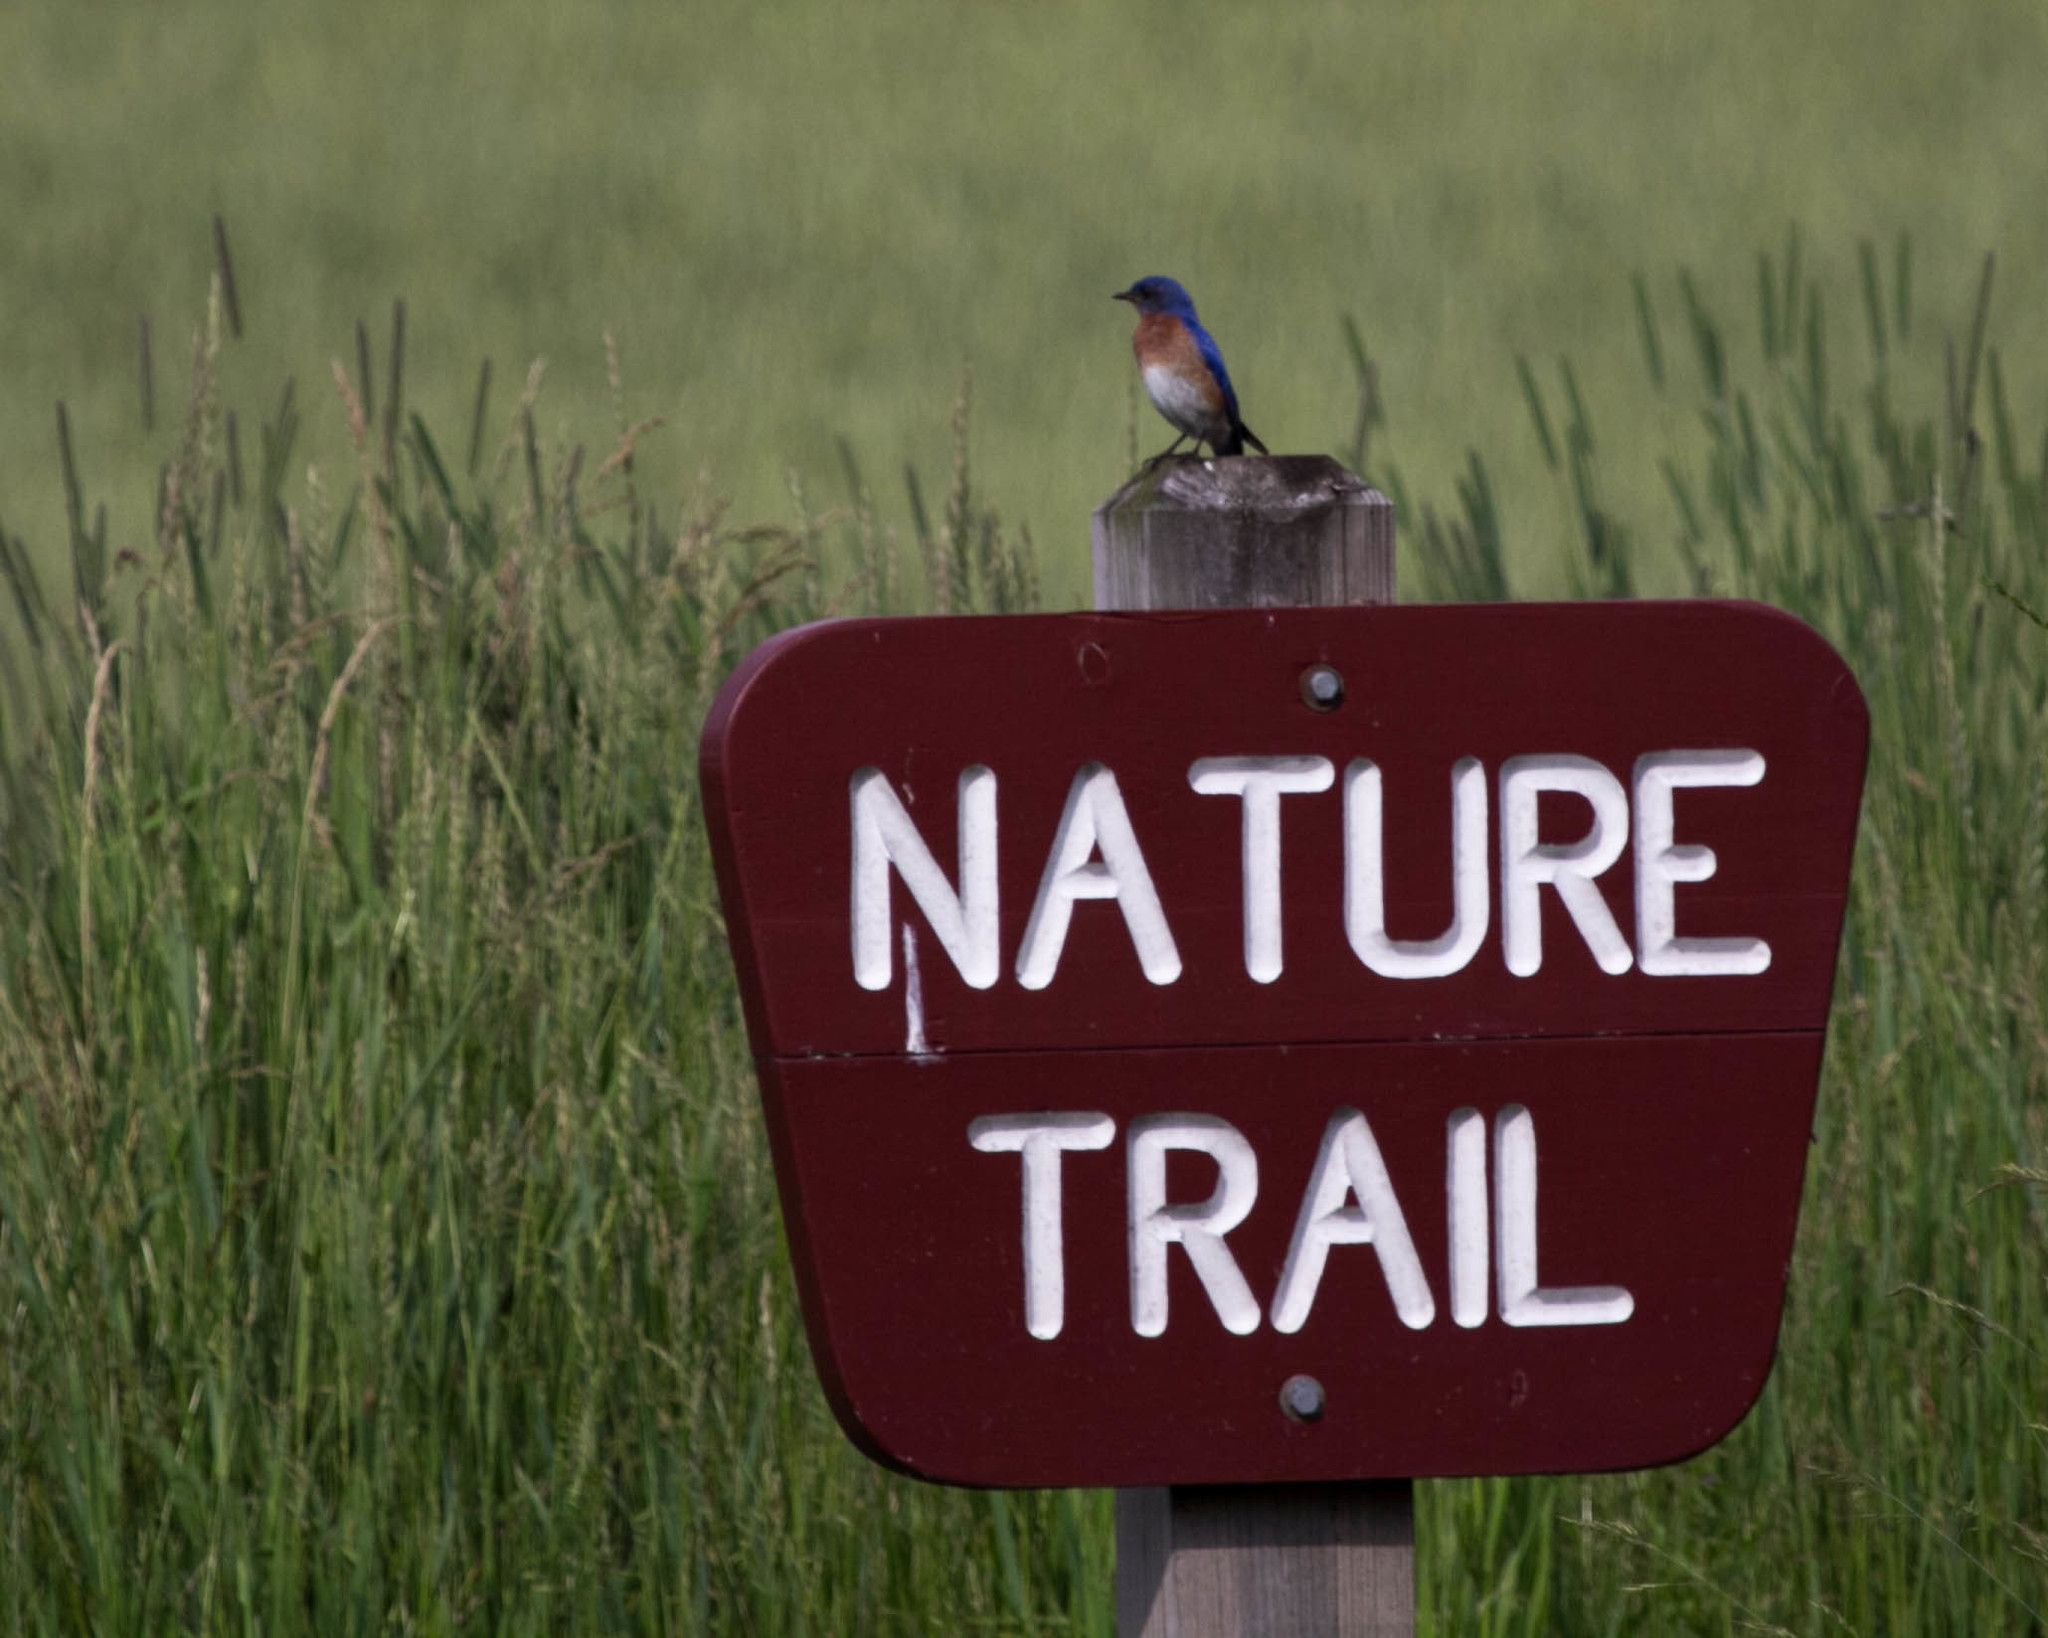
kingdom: Animalia
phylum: Chordata
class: Aves
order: Passeriformes
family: Turdidae
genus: Sialia
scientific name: Sialia sialis
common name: Eastern bluebird
